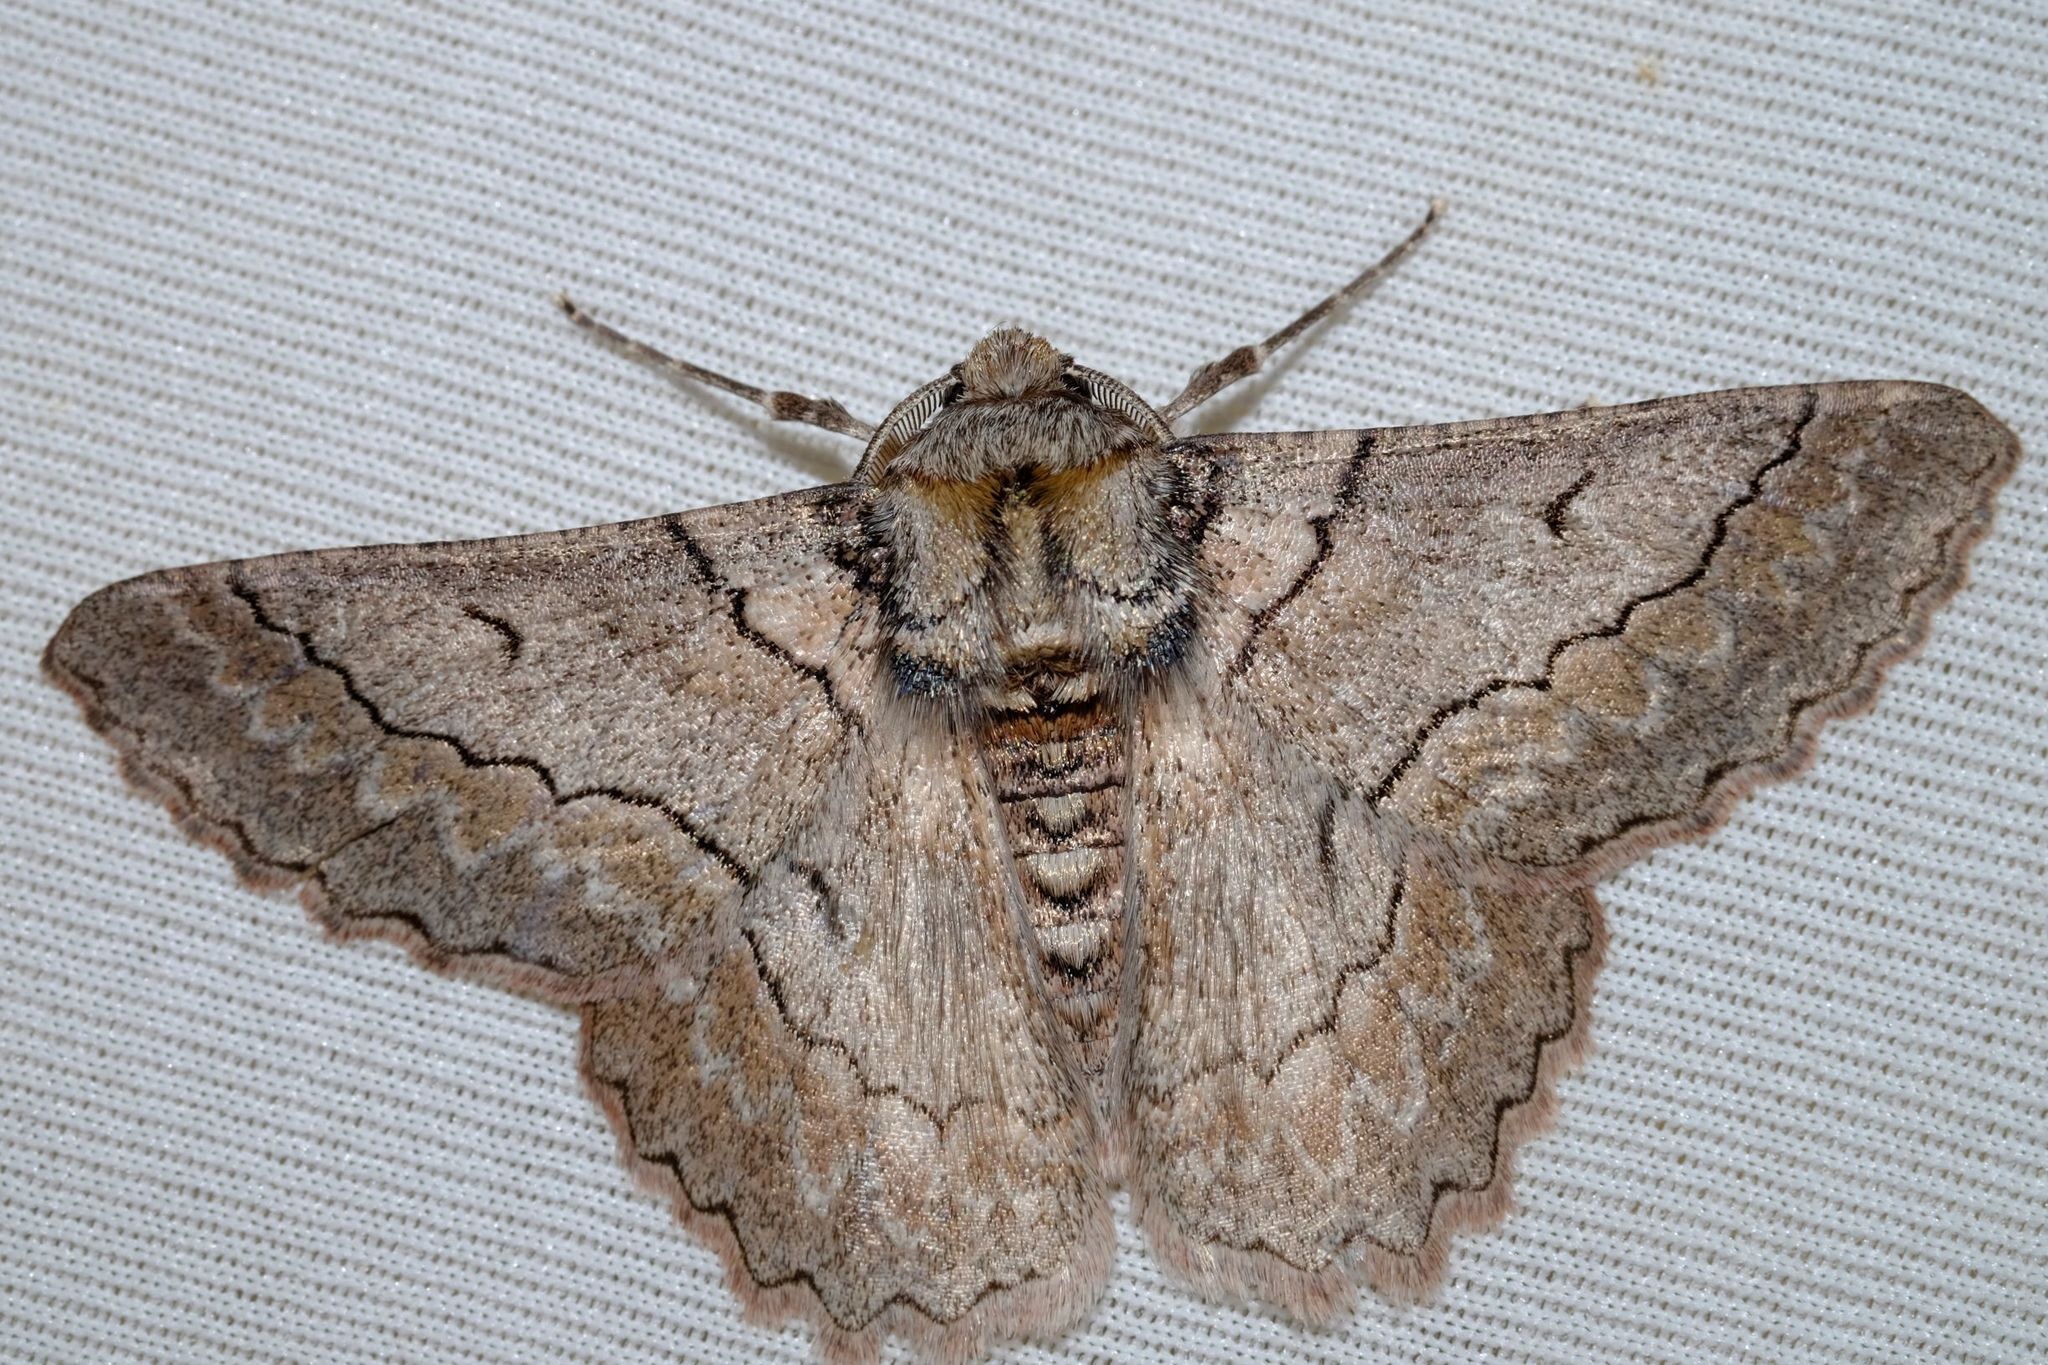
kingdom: Animalia
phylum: Arthropoda
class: Insecta
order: Lepidoptera
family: Geometridae
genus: Hypobapta
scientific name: Hypobapta tachyhalotaria
